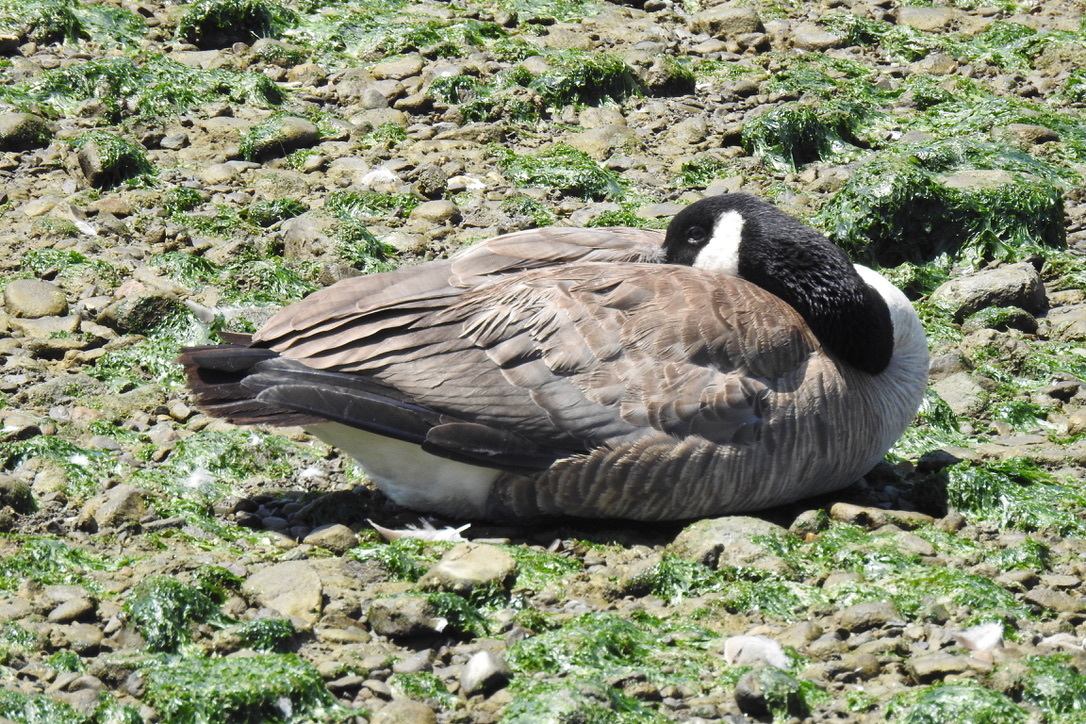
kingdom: Animalia
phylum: Chordata
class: Aves
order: Anseriformes
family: Anatidae
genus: Branta
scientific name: Branta canadensis
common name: Canada goose
